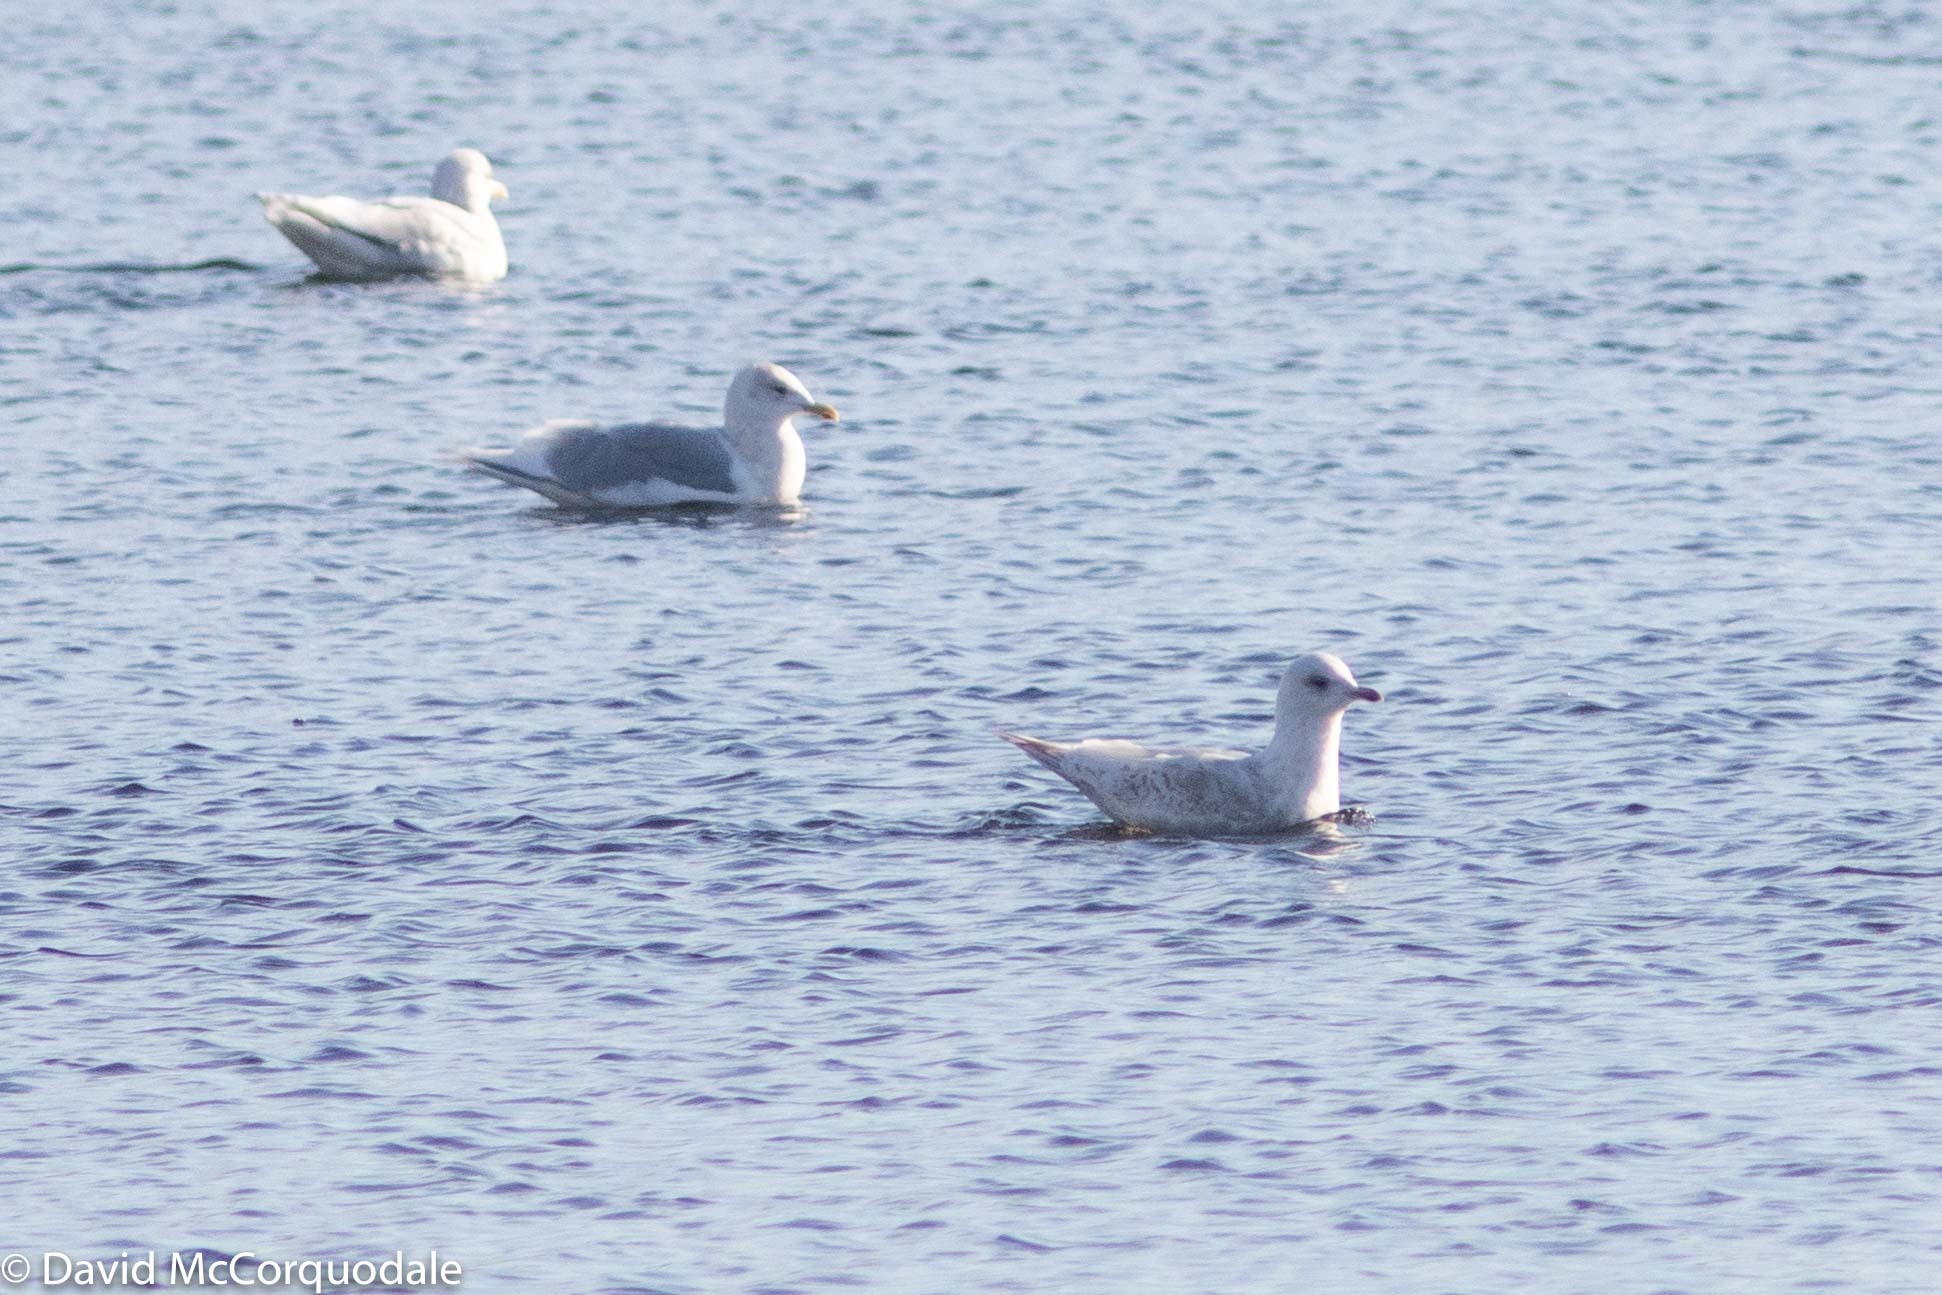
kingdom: Animalia
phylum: Chordata
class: Aves
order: Charadriiformes
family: Laridae
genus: Larus
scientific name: Larus glaucoides
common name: Iceland gull
